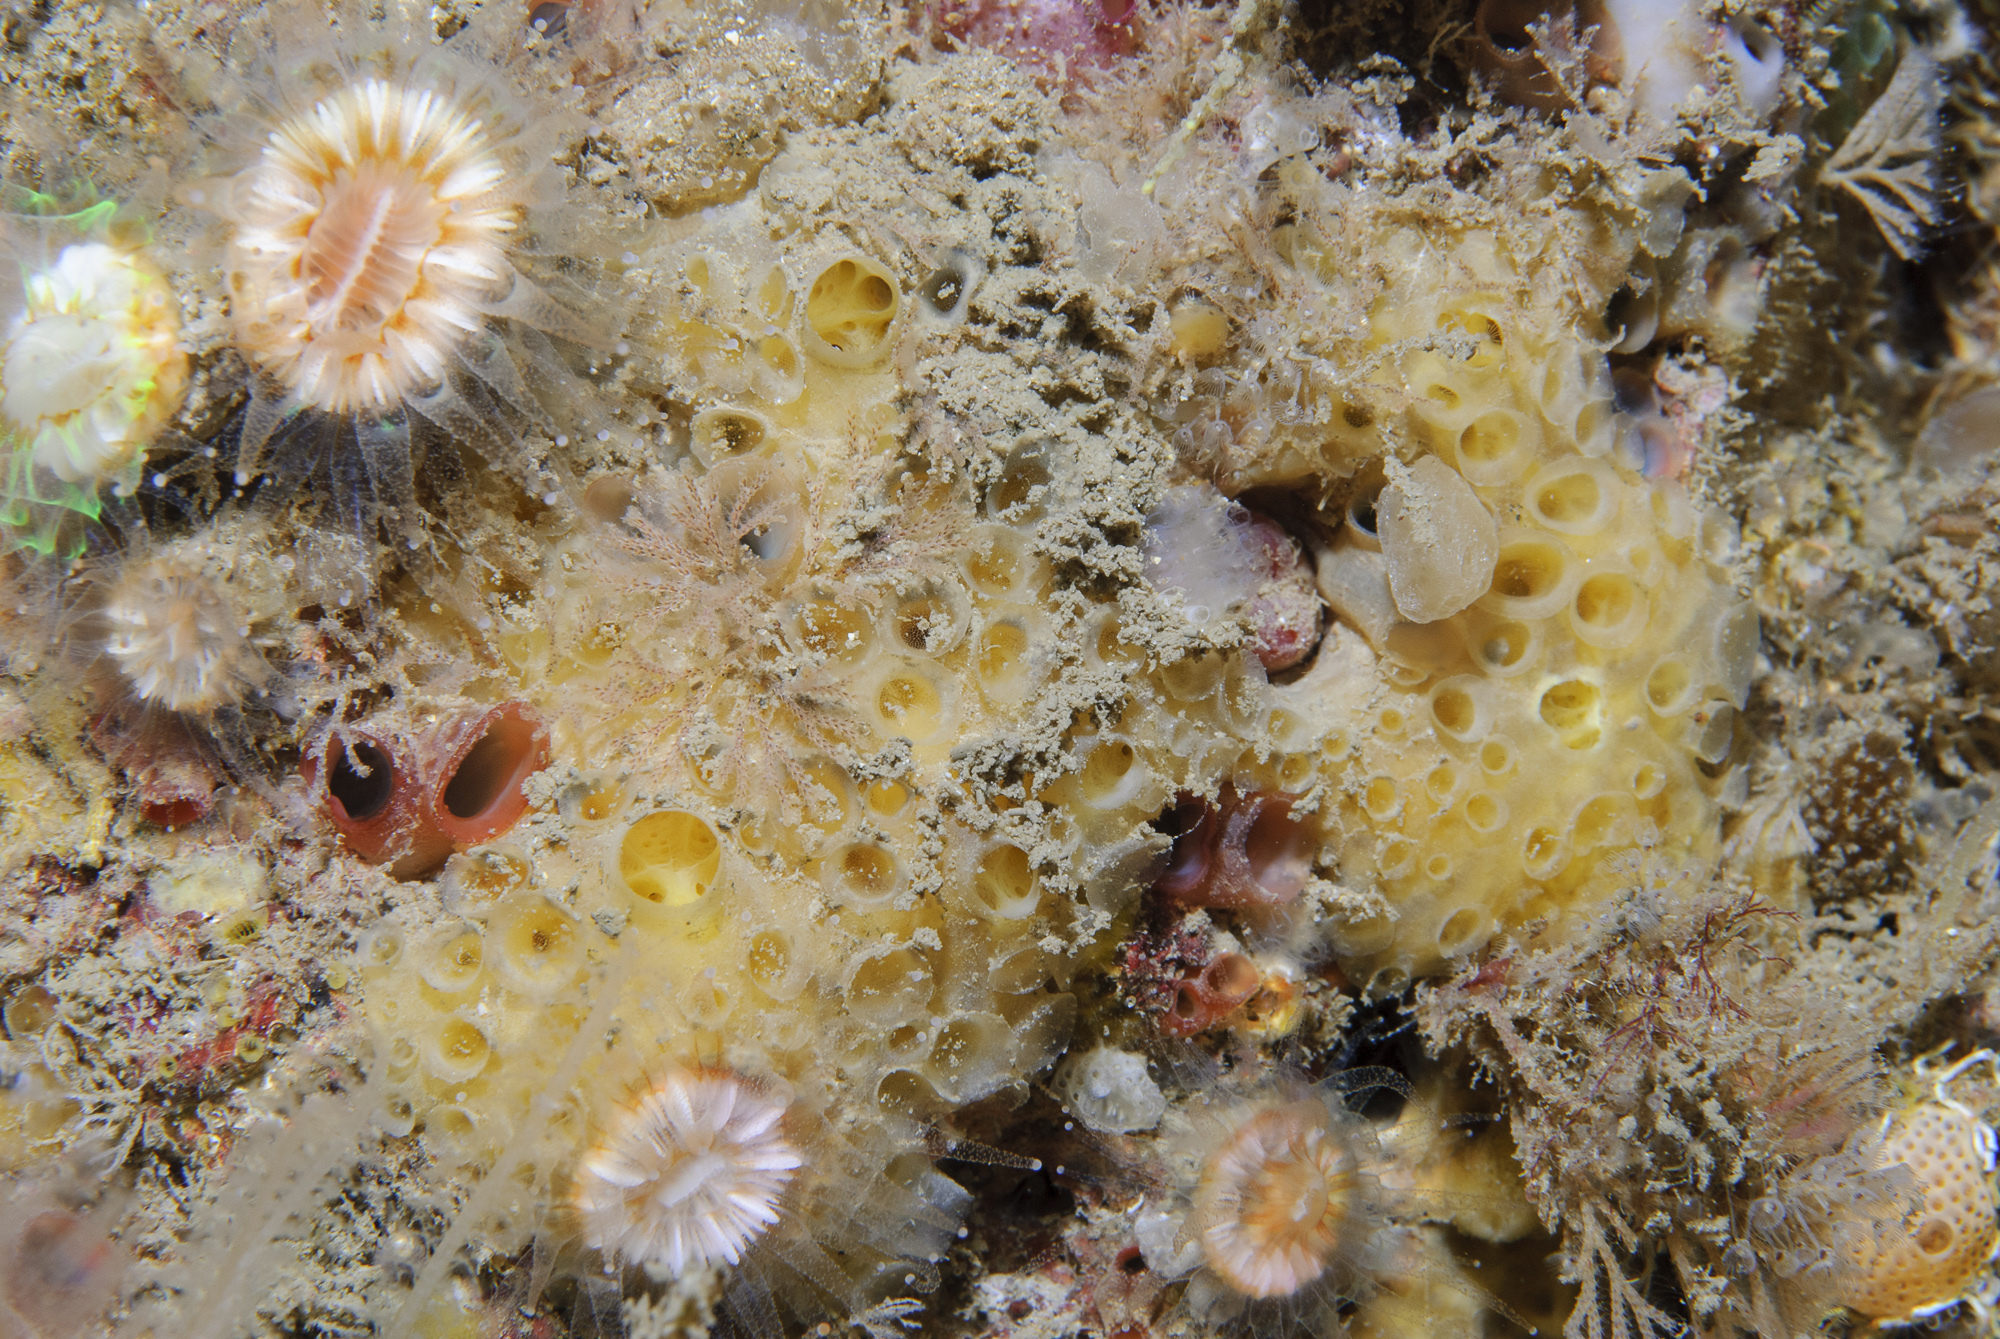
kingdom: Animalia
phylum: Porifera
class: Demospongiae
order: Poecilosclerida
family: Coelosphaeridae
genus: Lissodendoryx
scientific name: Lissodendoryx jenjonesae
